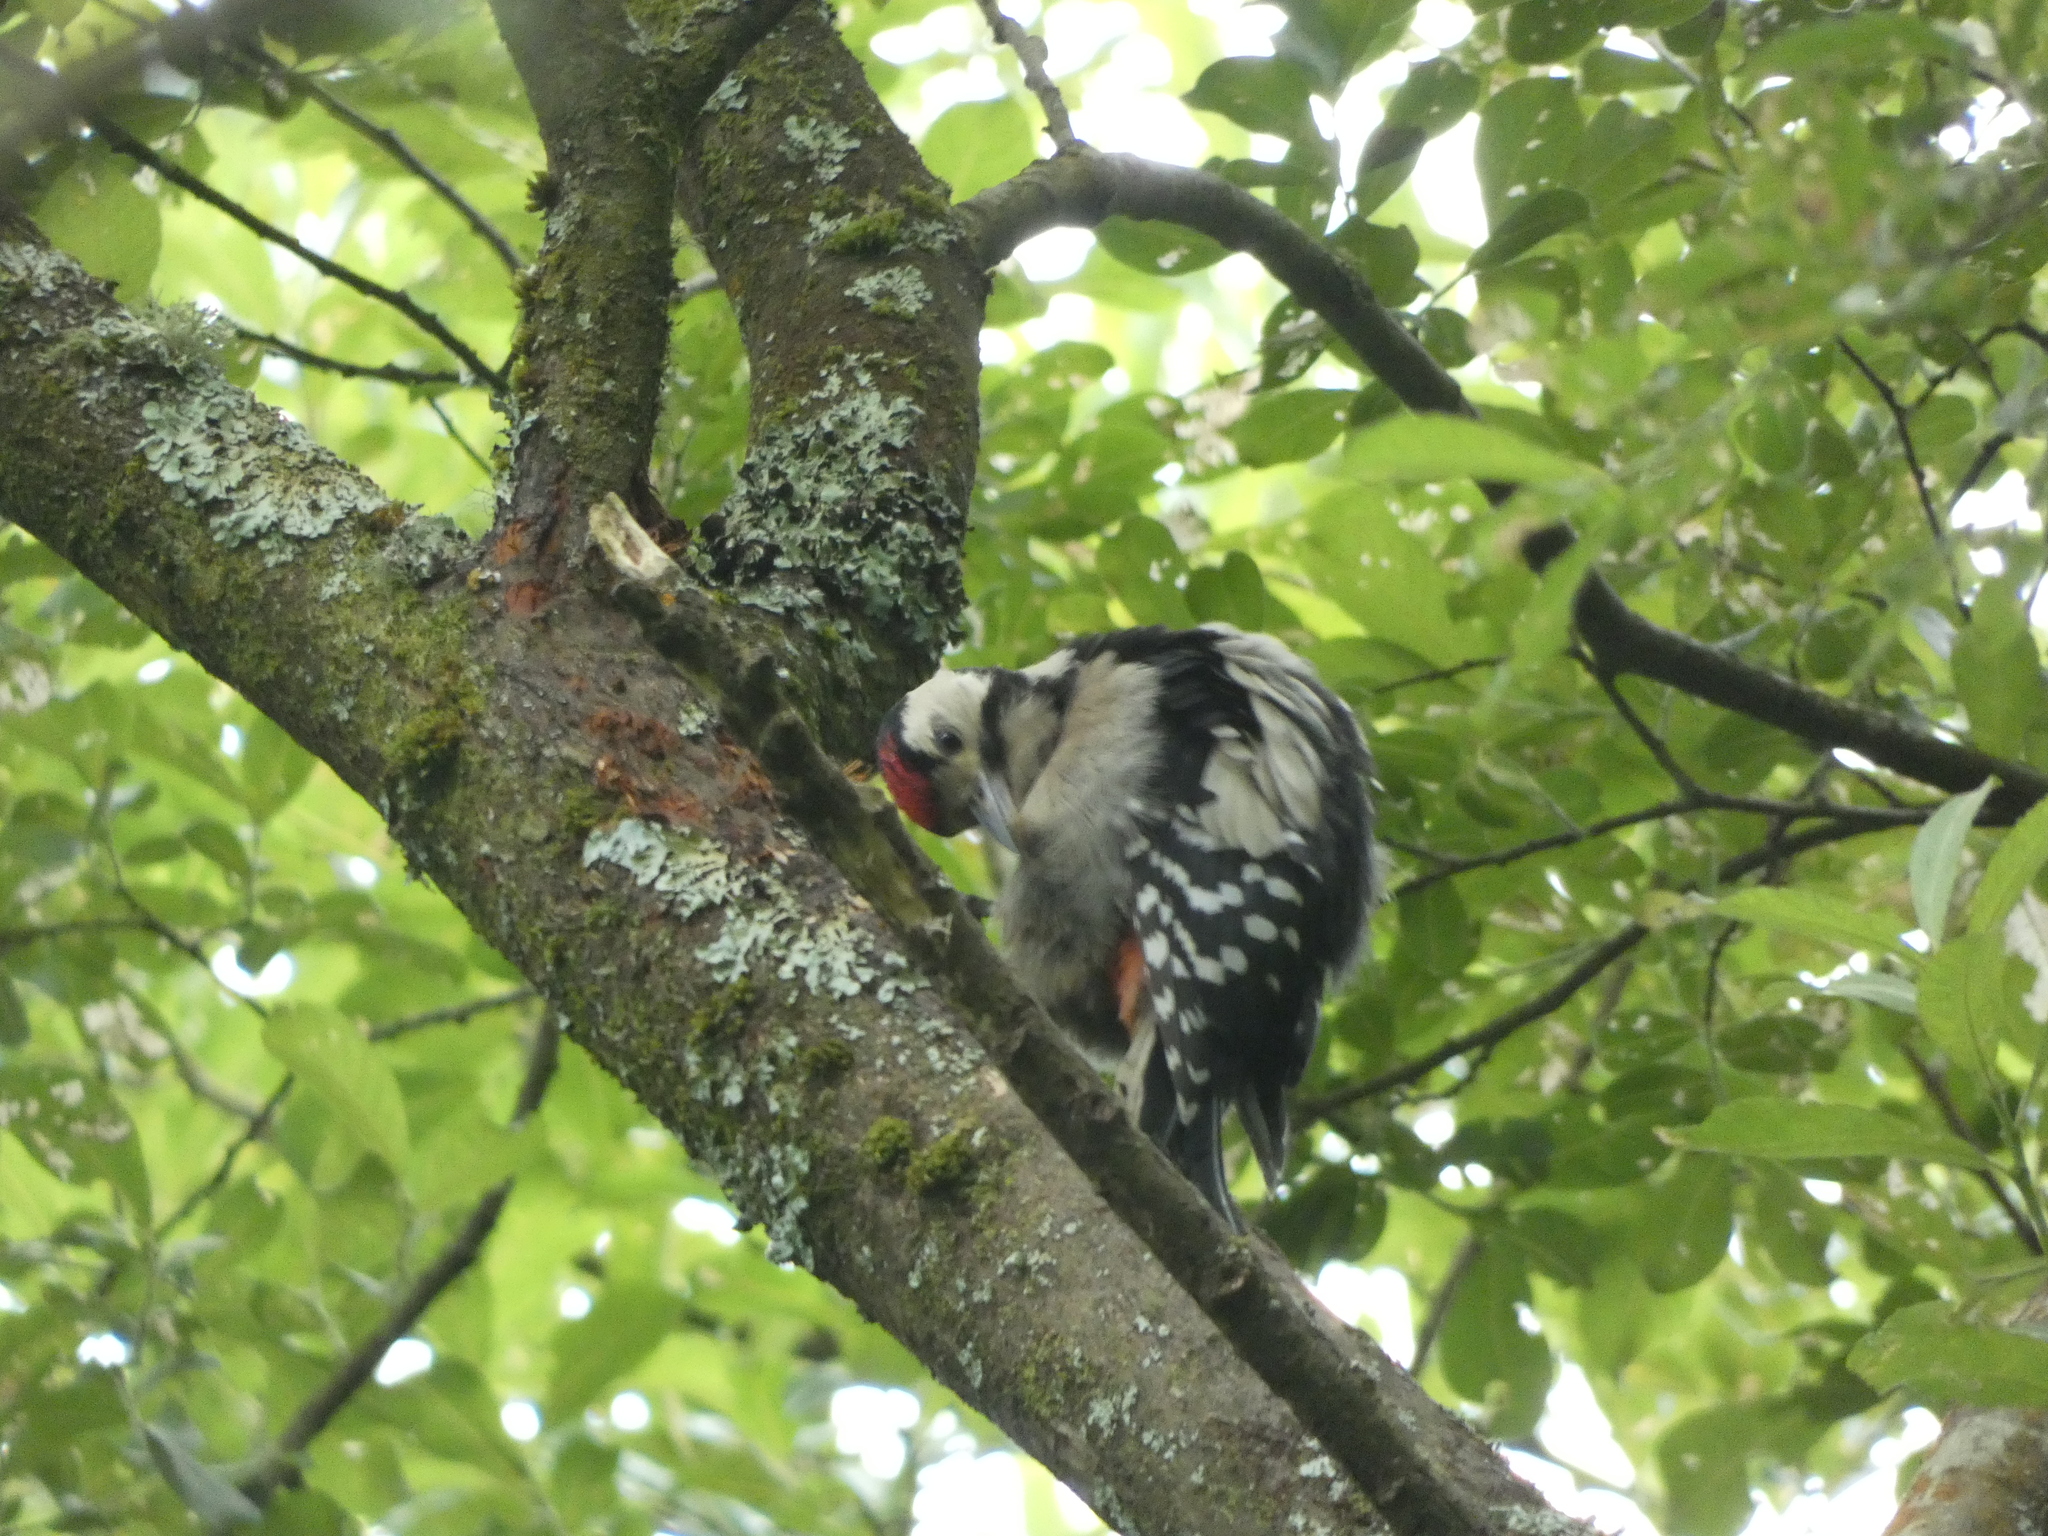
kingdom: Animalia
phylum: Chordata
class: Aves
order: Piciformes
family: Picidae
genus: Dendrocopos
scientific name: Dendrocopos major
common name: Great spotted woodpecker
